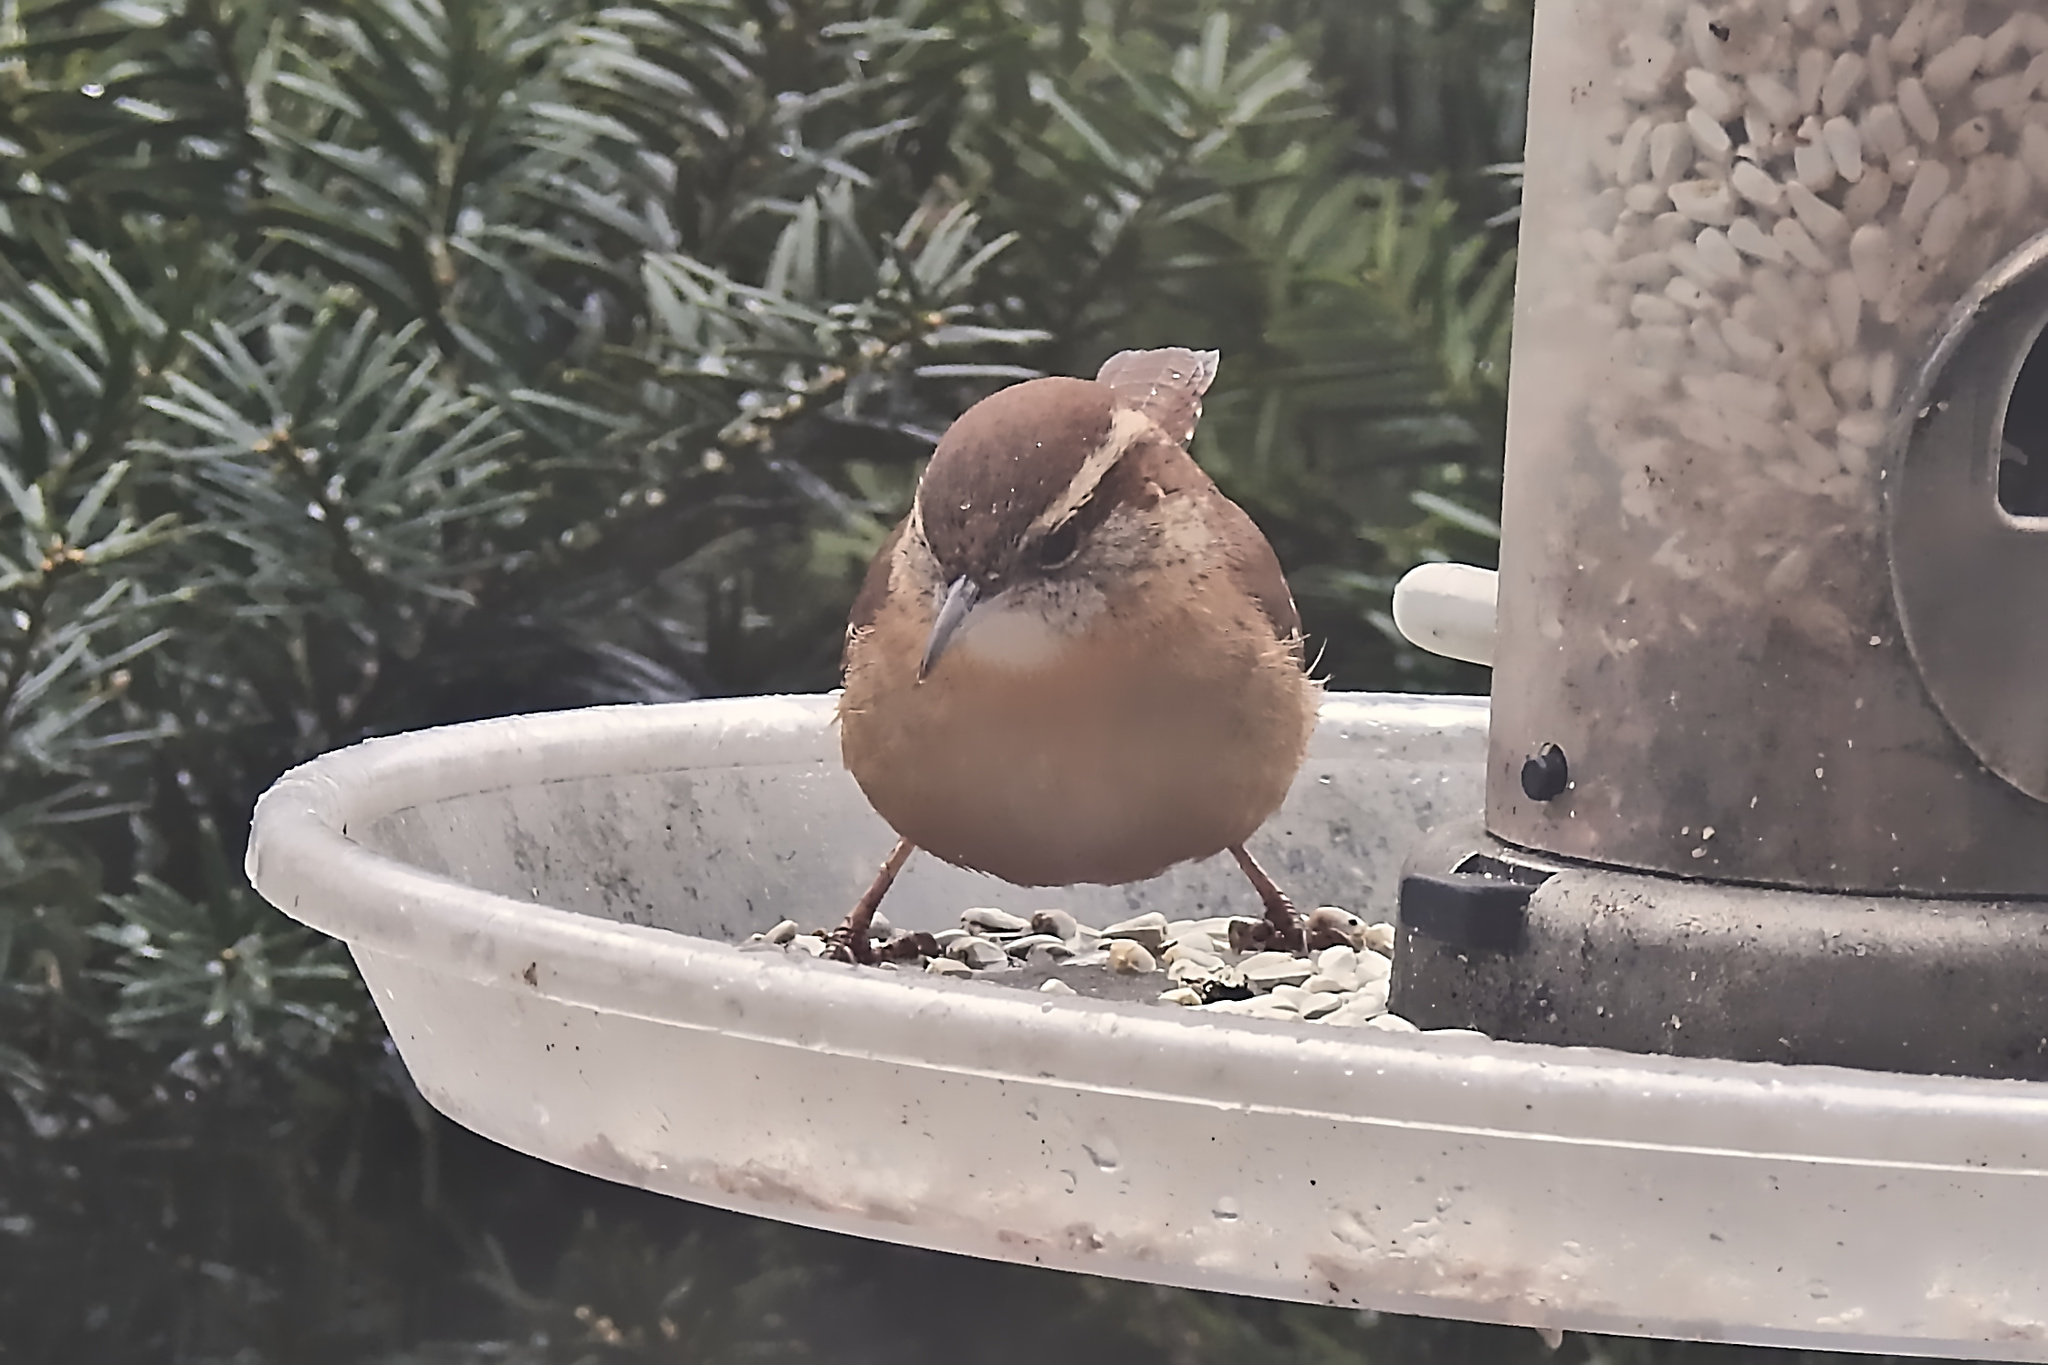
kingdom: Animalia
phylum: Chordata
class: Aves
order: Passeriformes
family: Troglodytidae
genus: Thryothorus
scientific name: Thryothorus ludovicianus
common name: Carolina wren
